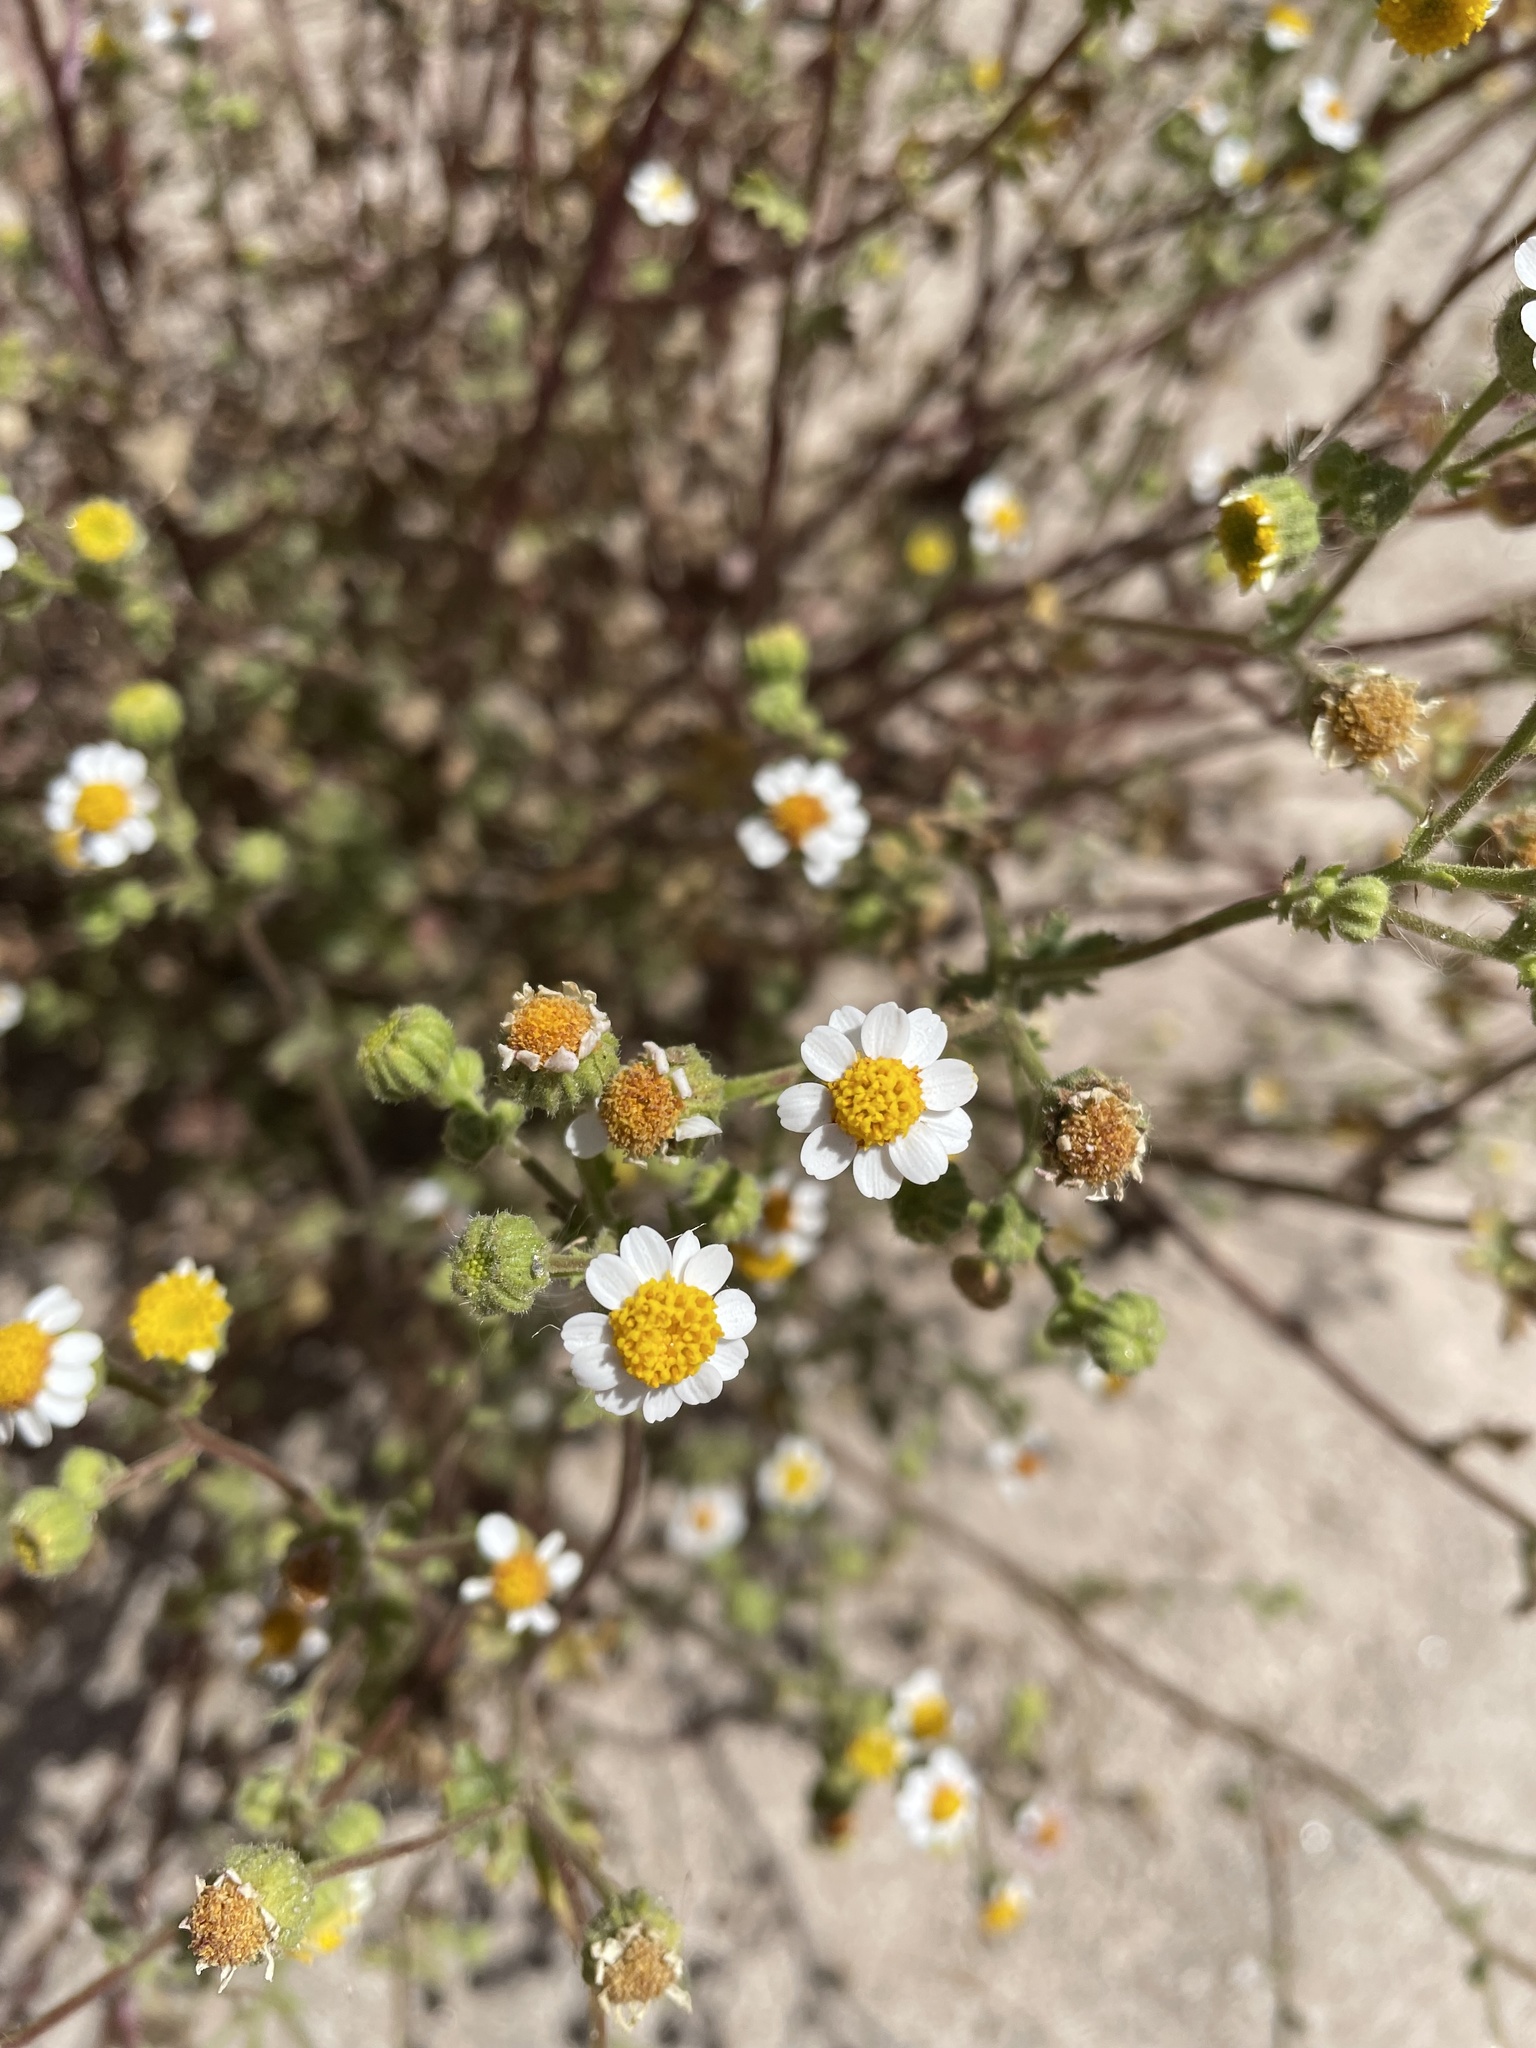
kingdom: Plantae
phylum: Tracheophyta
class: Magnoliopsida
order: Asterales
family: Asteraceae
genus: Laphamia
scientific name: Laphamia emoryi
